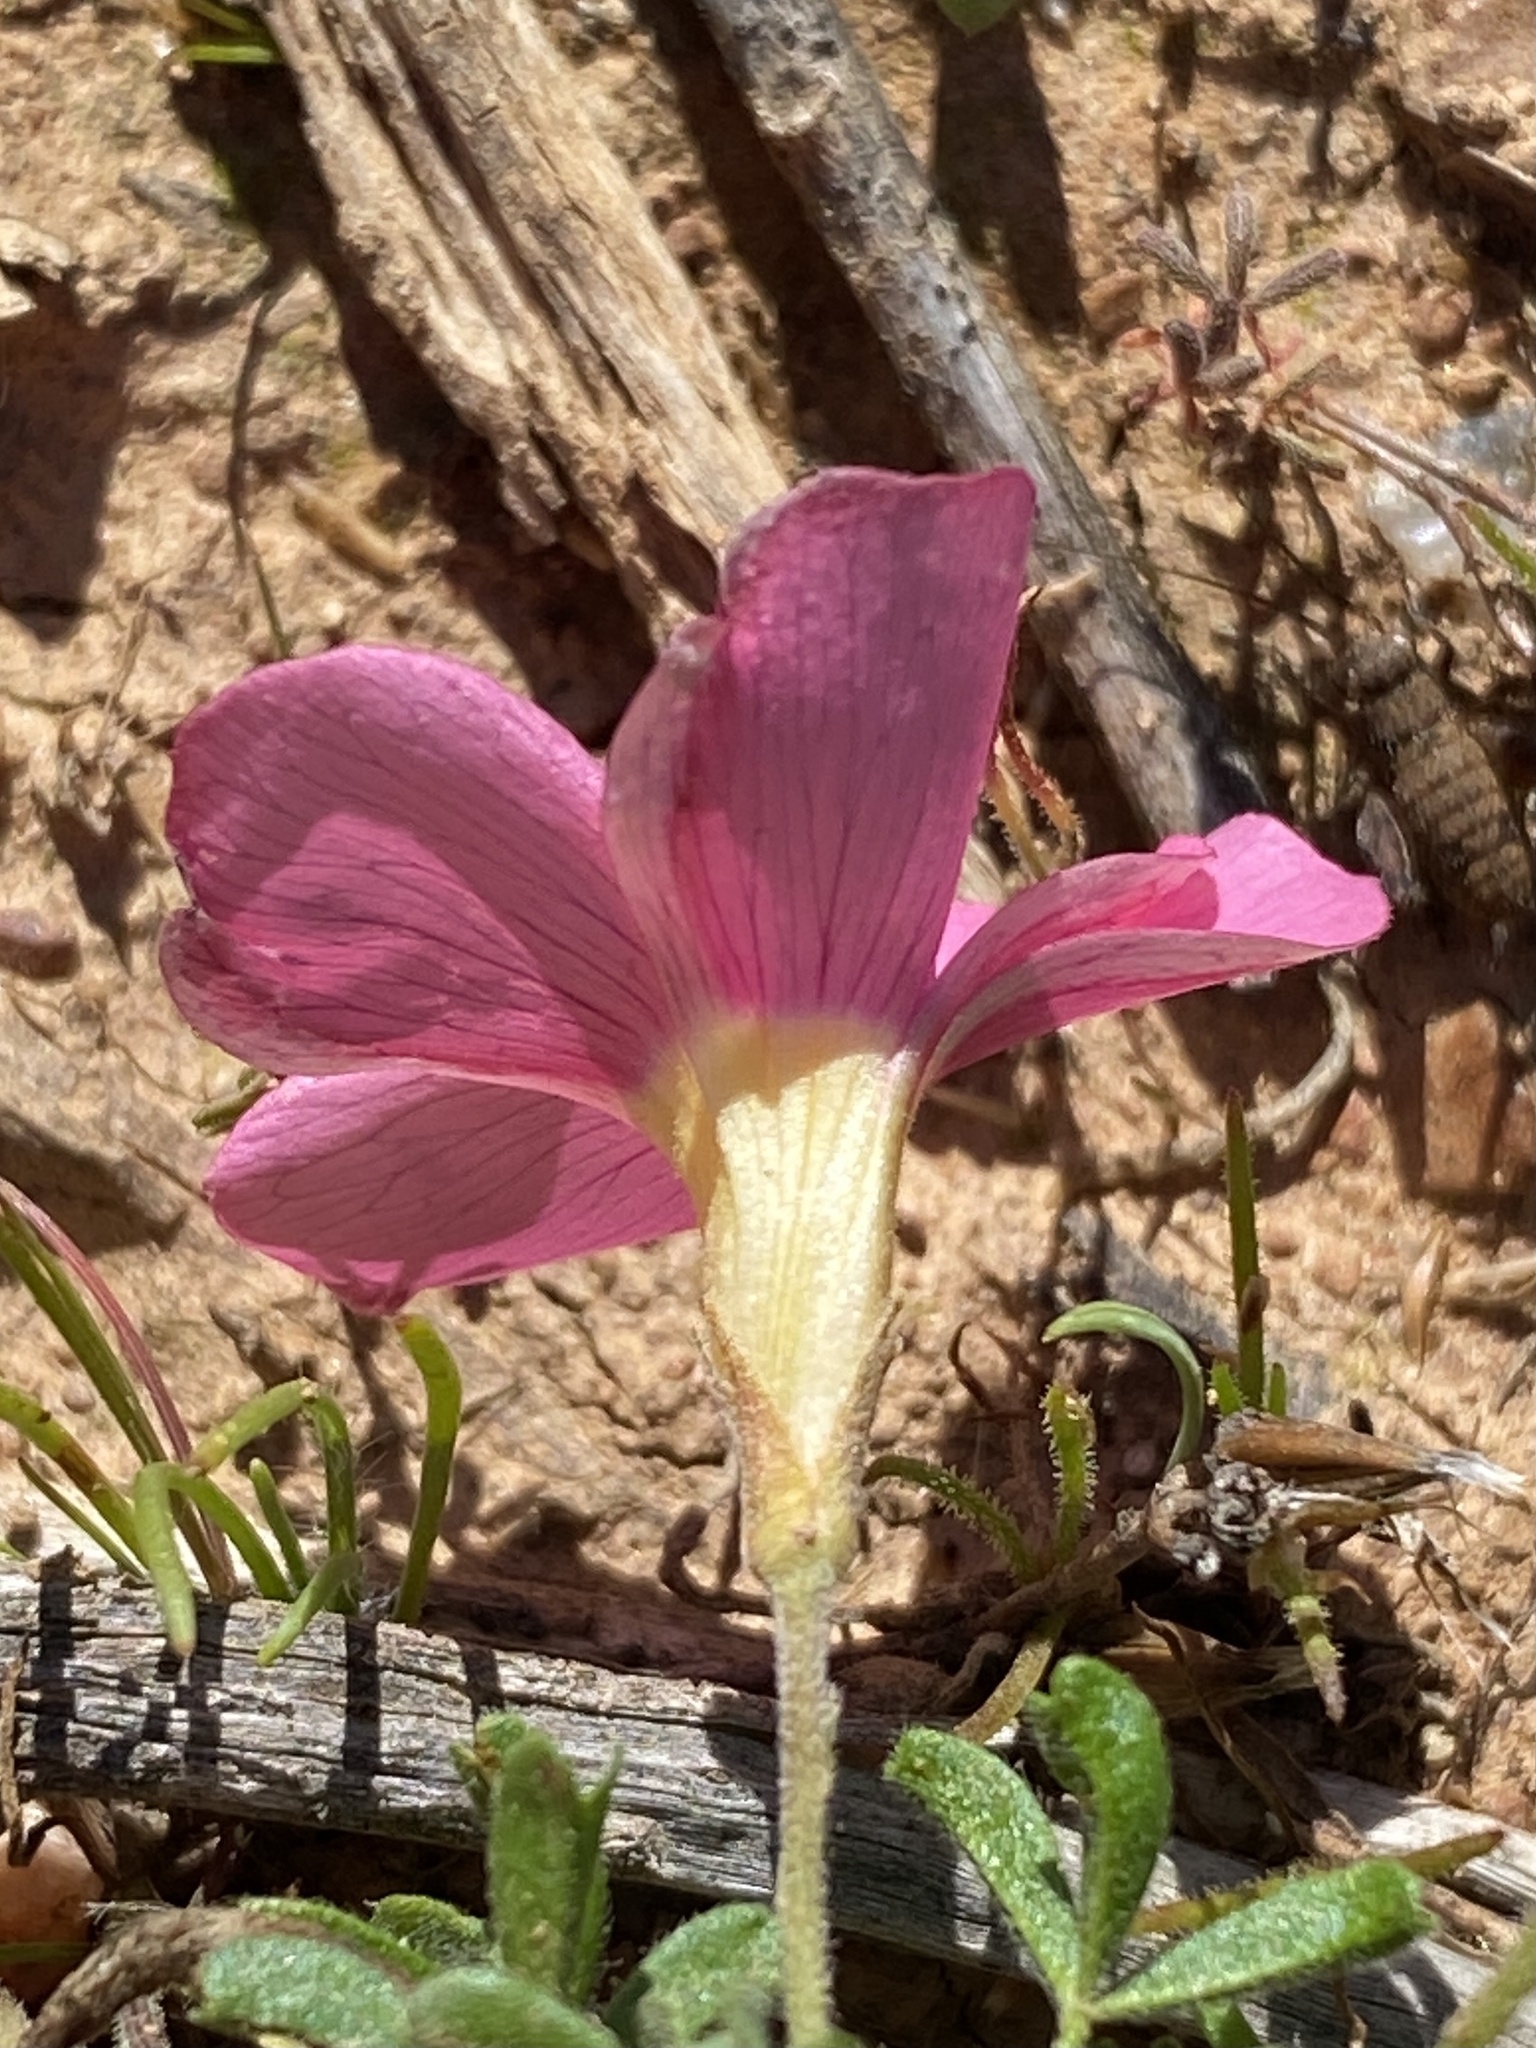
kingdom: Plantae
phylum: Tracheophyta
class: Magnoliopsida
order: Oxalidales
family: Oxalidaceae
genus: Oxalis
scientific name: Oxalis ciliaris
